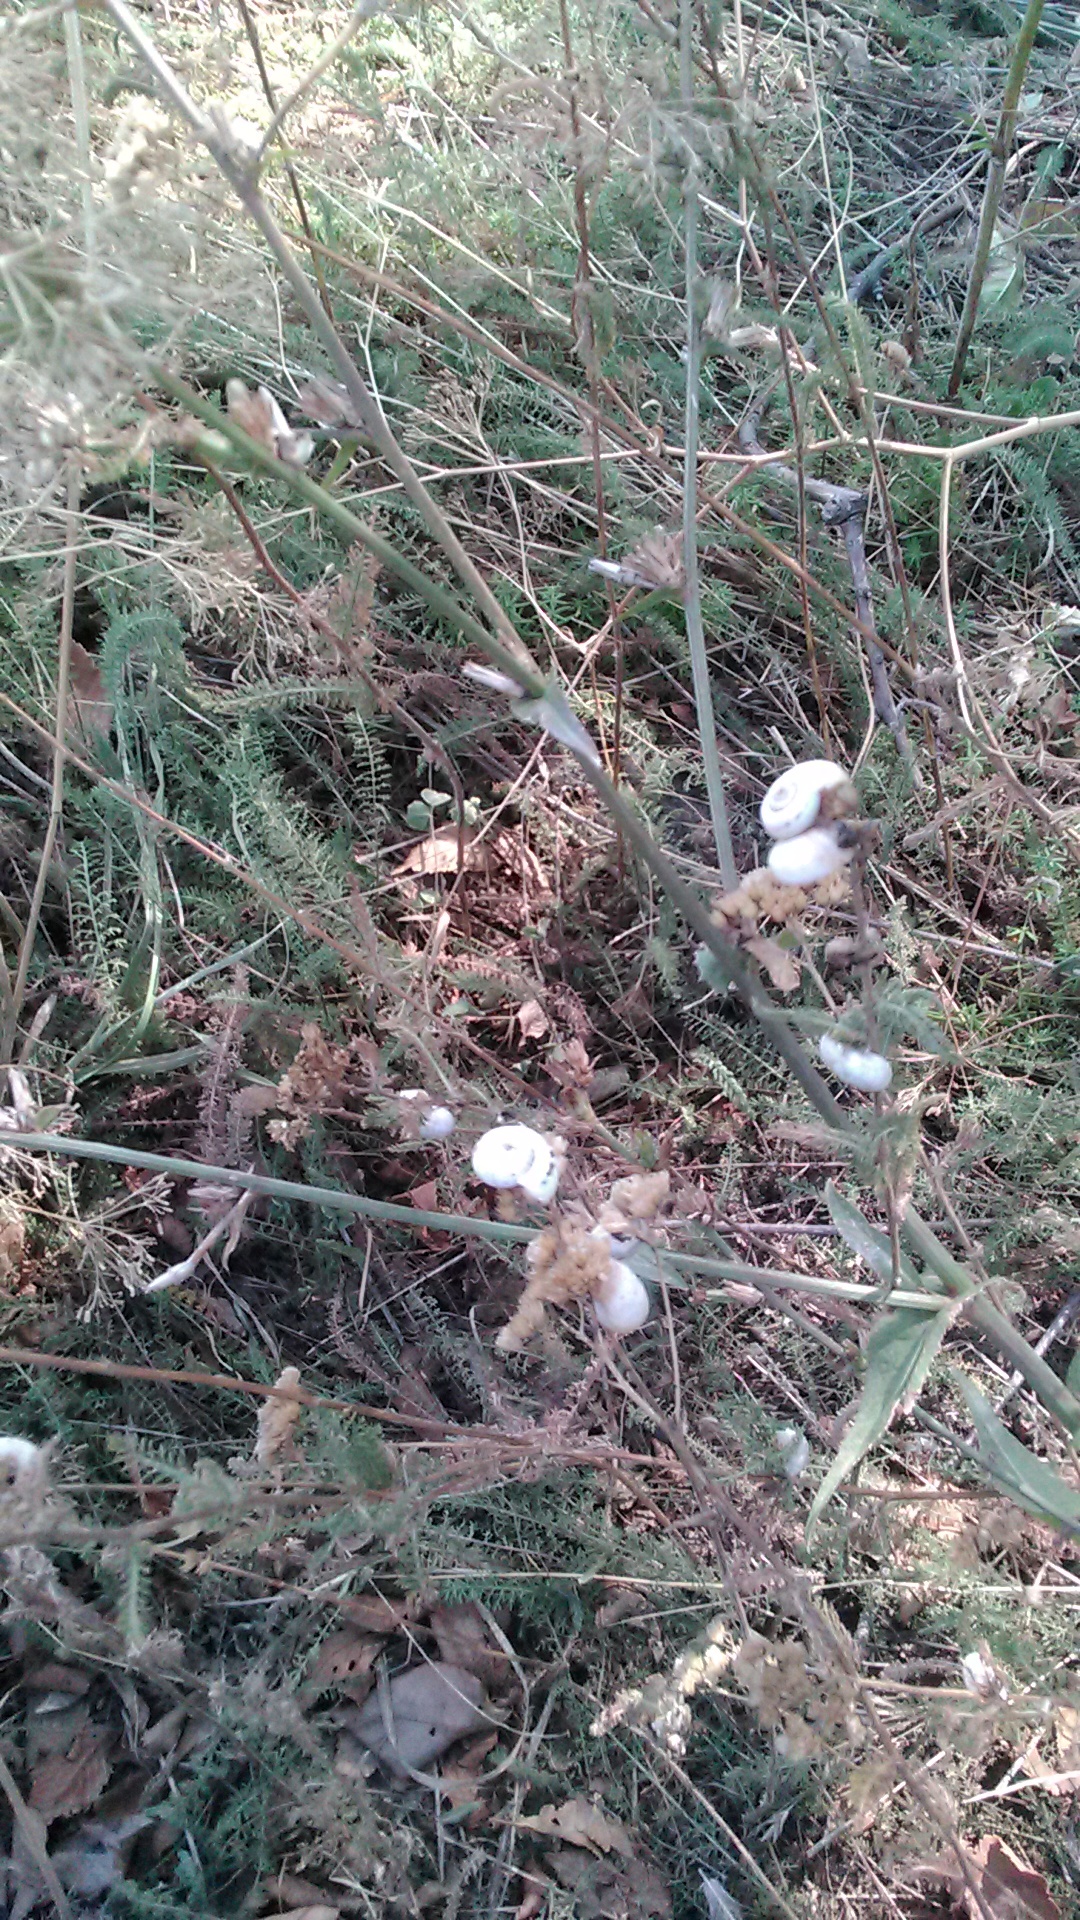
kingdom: Animalia
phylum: Mollusca
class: Gastropoda
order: Stylommatophora
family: Geomitridae
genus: Xeropicta
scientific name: Xeropicta derbentina
